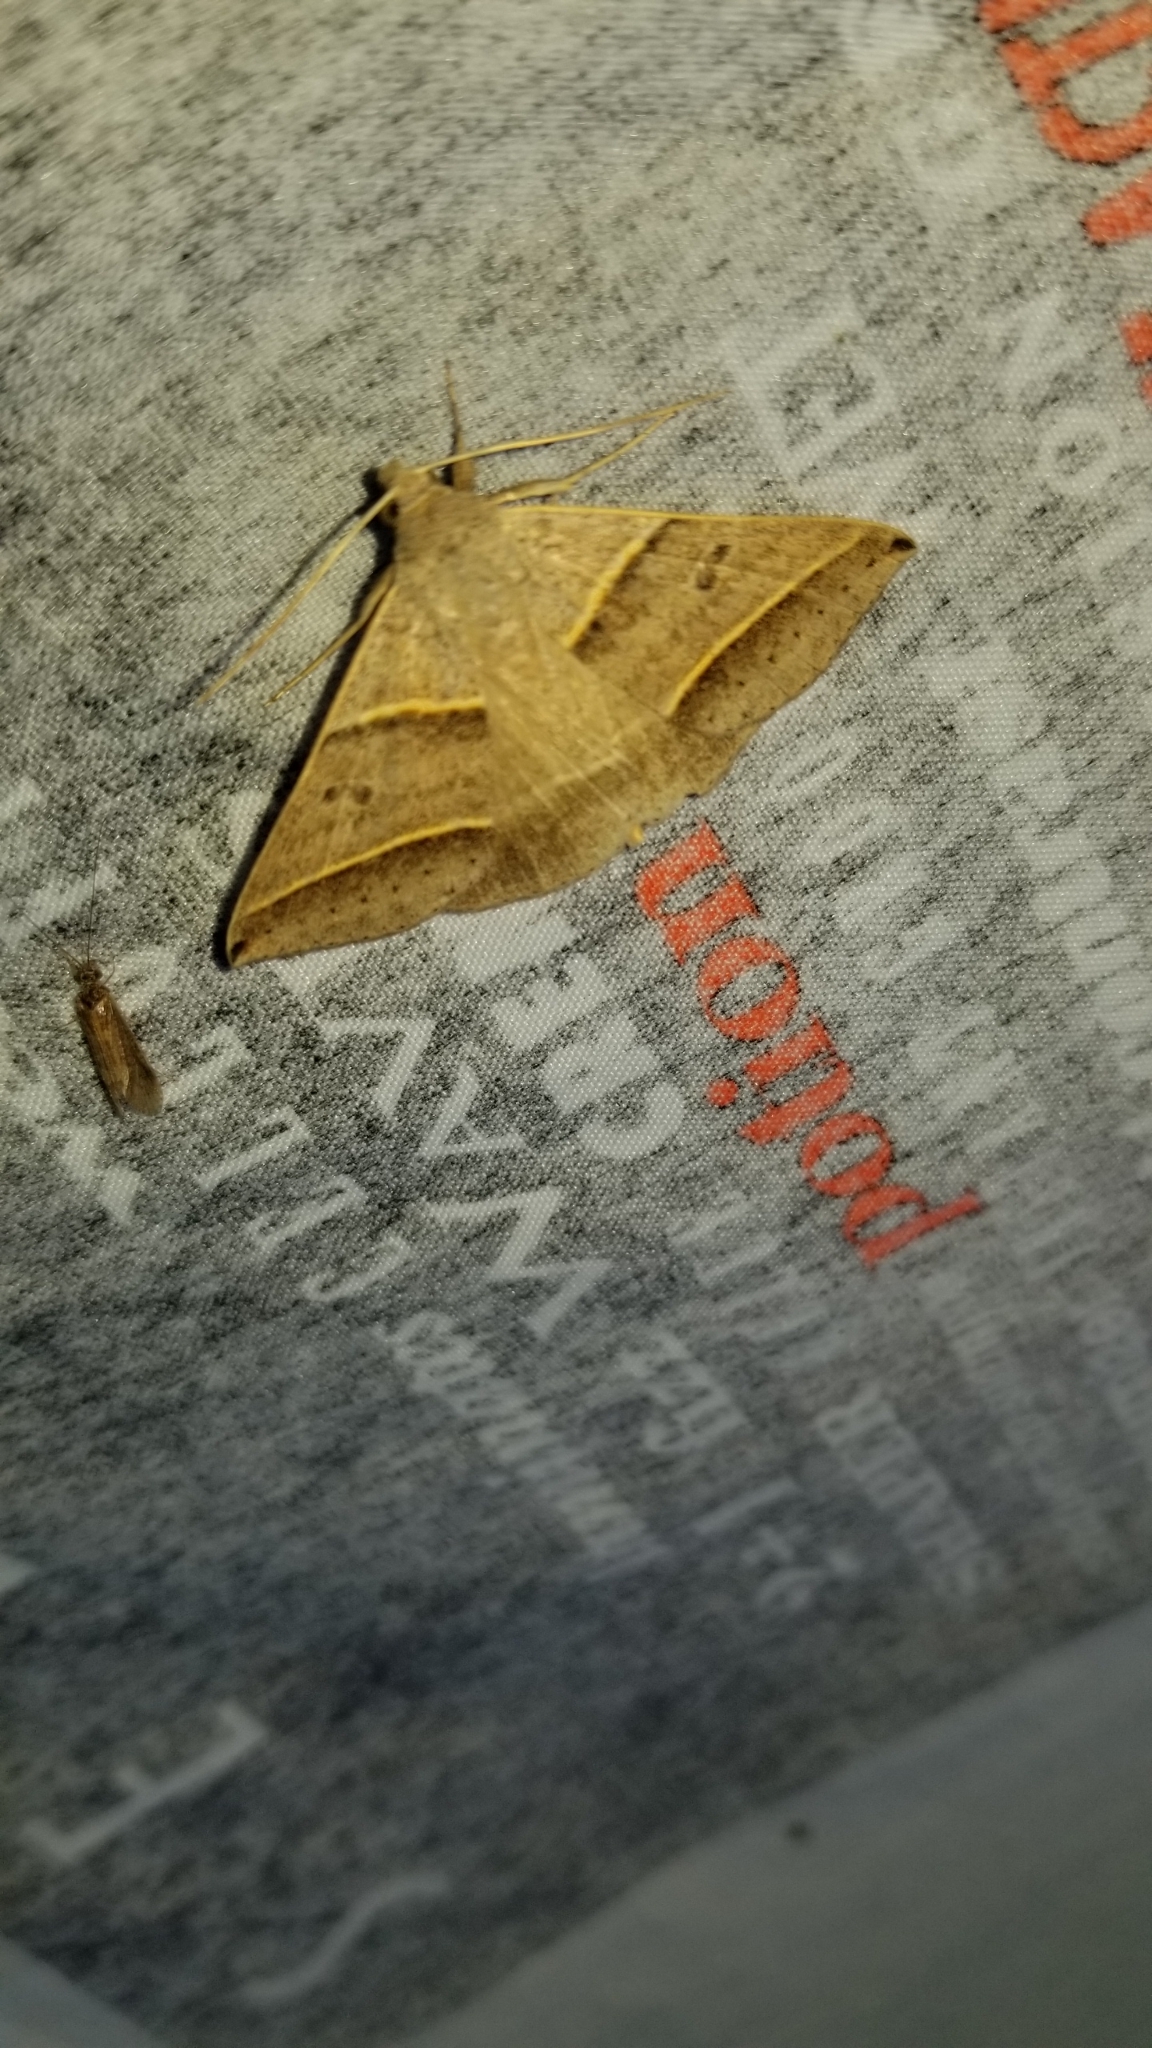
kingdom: Animalia
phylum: Arthropoda
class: Insecta
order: Lepidoptera
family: Erebidae
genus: Ptichodis
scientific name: Ptichodis vinculum
